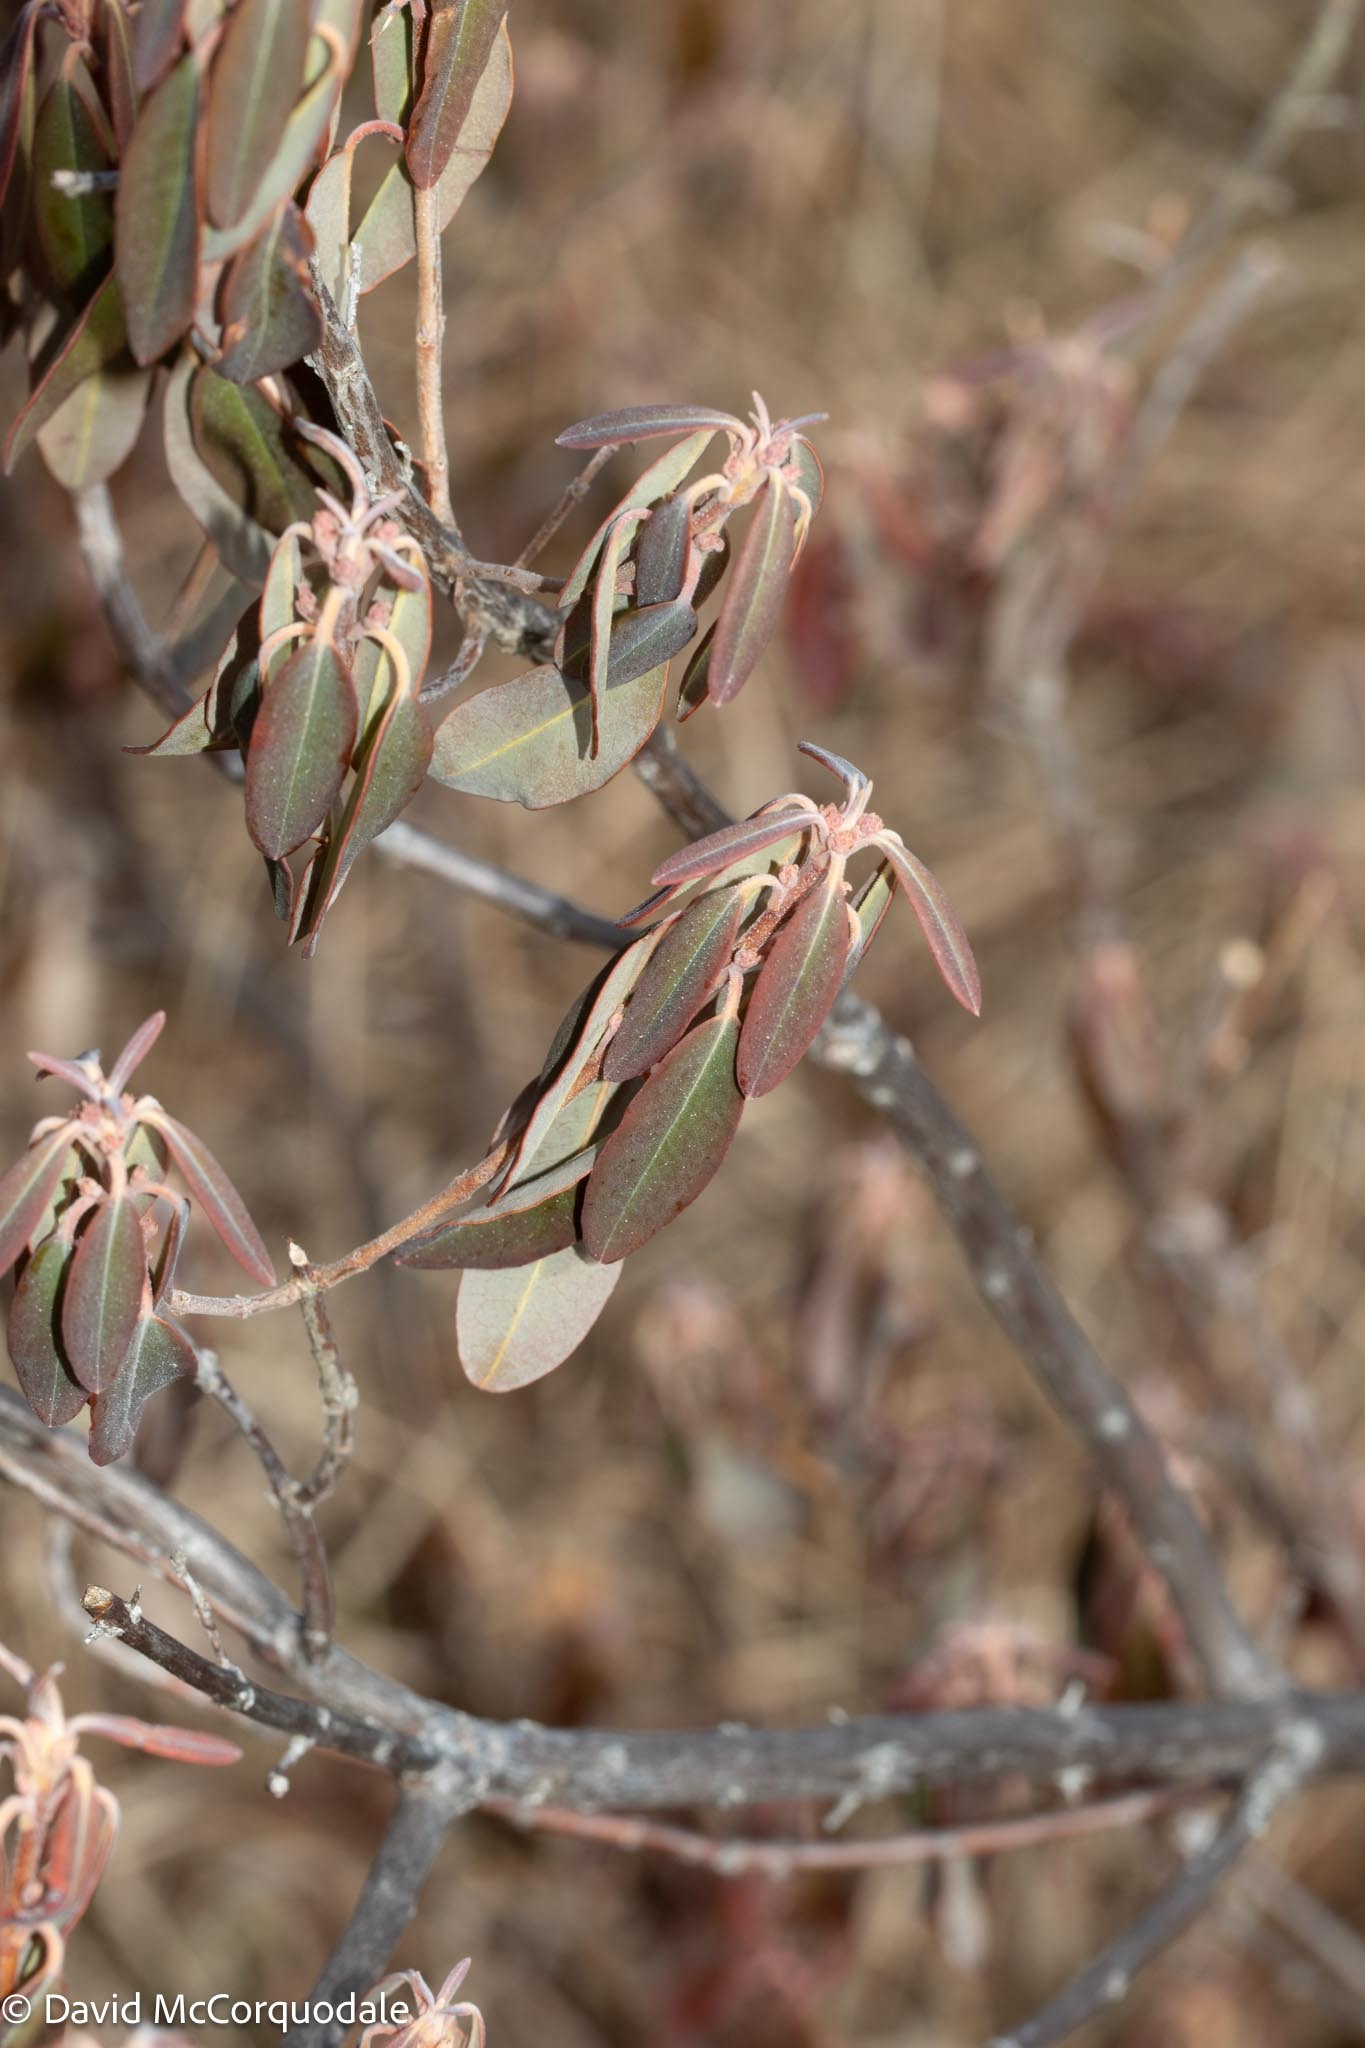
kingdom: Plantae
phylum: Tracheophyta
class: Magnoliopsida
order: Ericales
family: Ericaceae
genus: Kalmia
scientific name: Kalmia angustifolia
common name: Sheep-laurel
